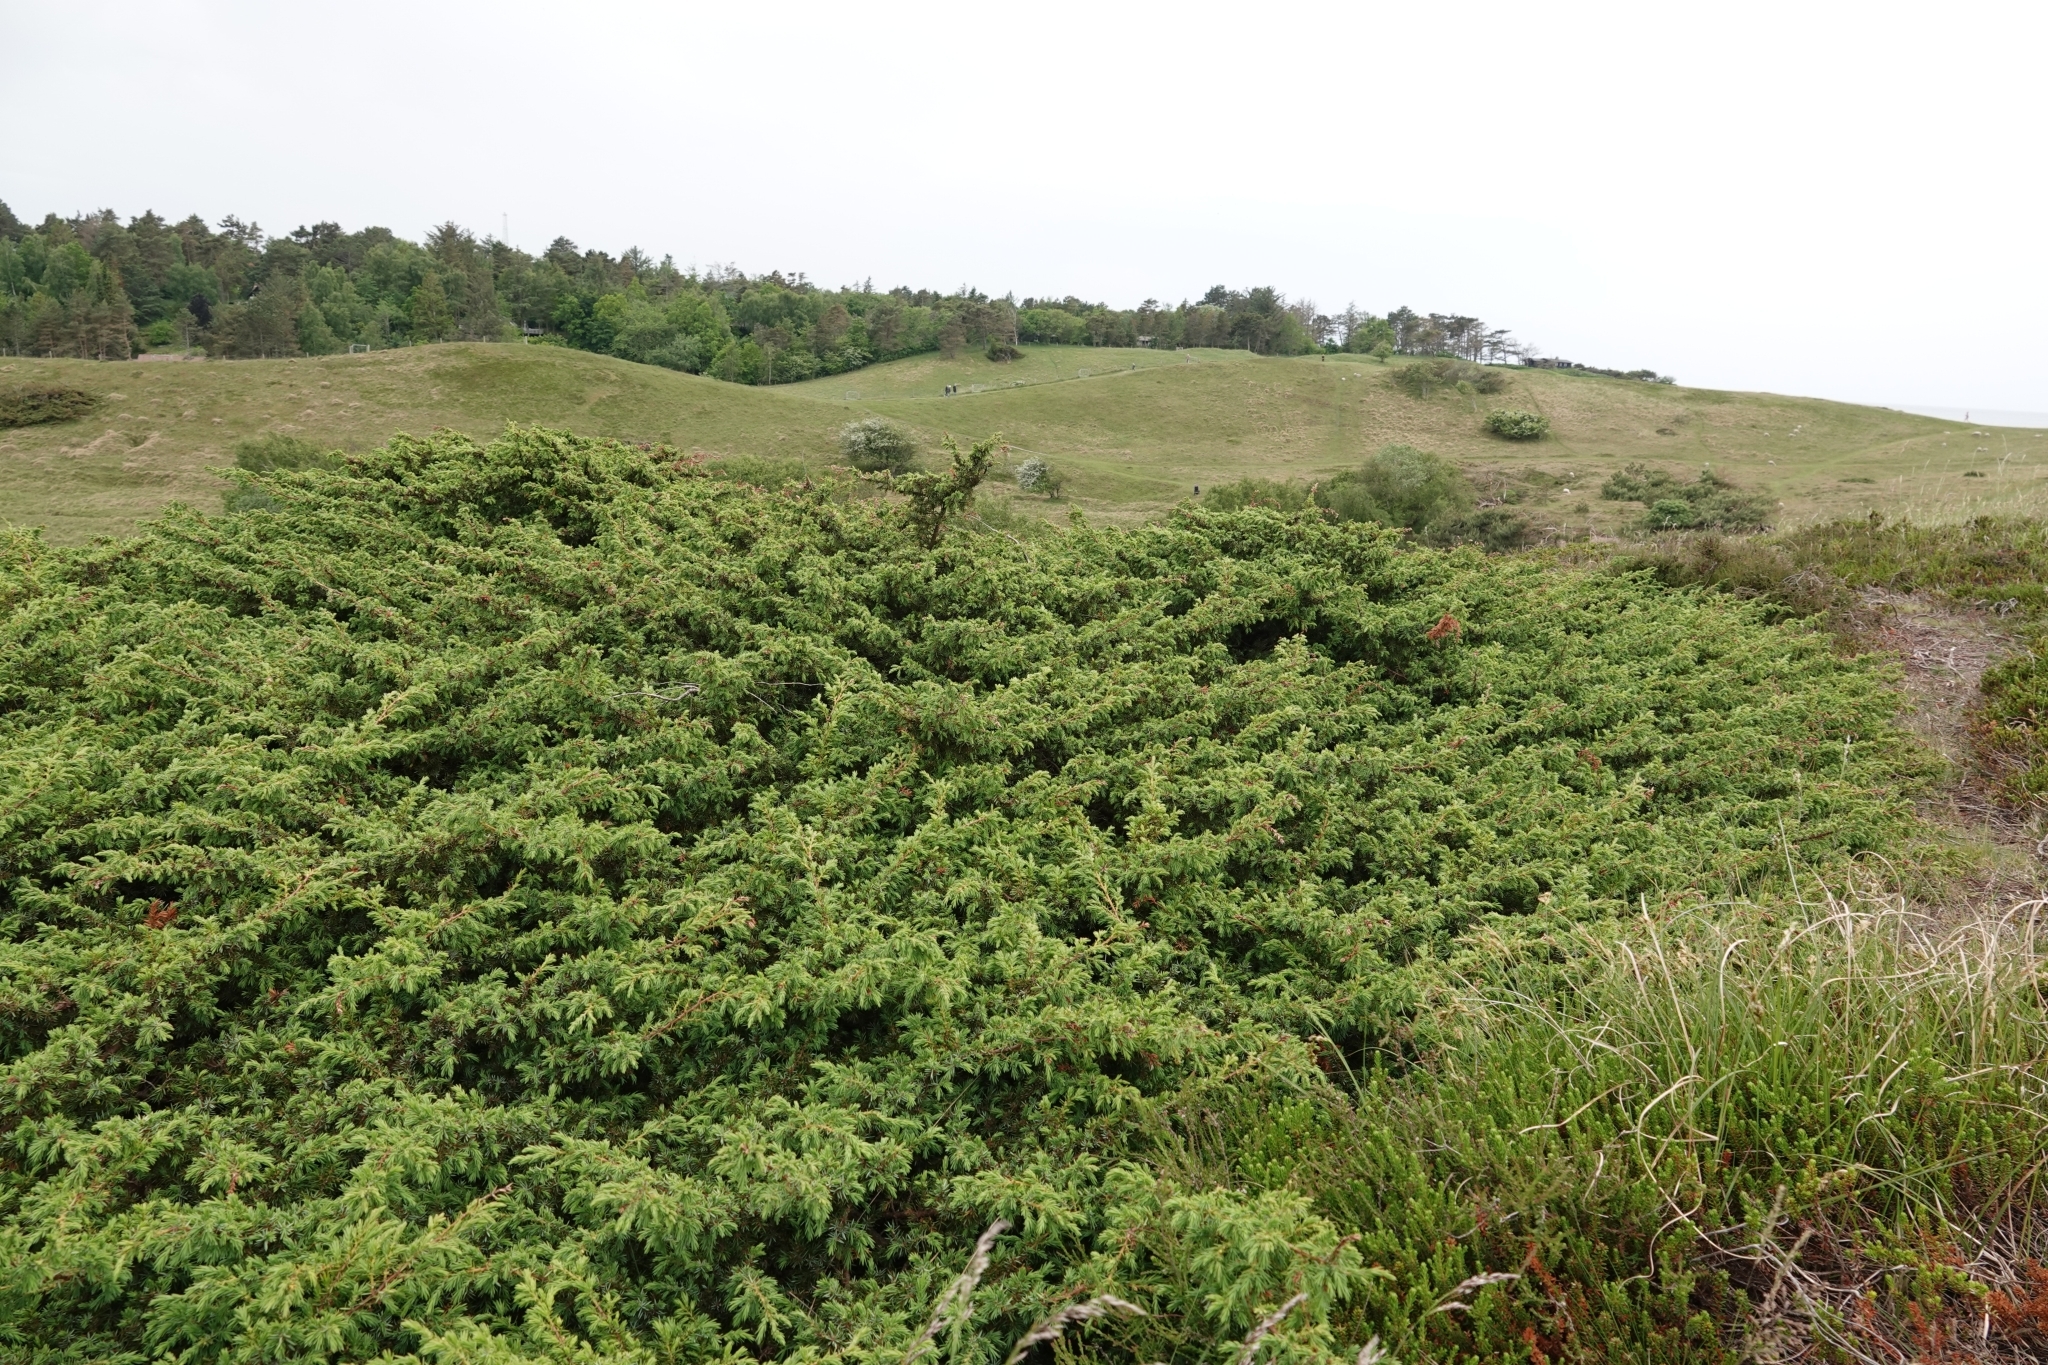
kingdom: Plantae
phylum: Tracheophyta
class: Pinopsida
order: Pinales
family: Cupressaceae
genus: Juniperus
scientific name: Juniperus communis
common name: Common juniper
